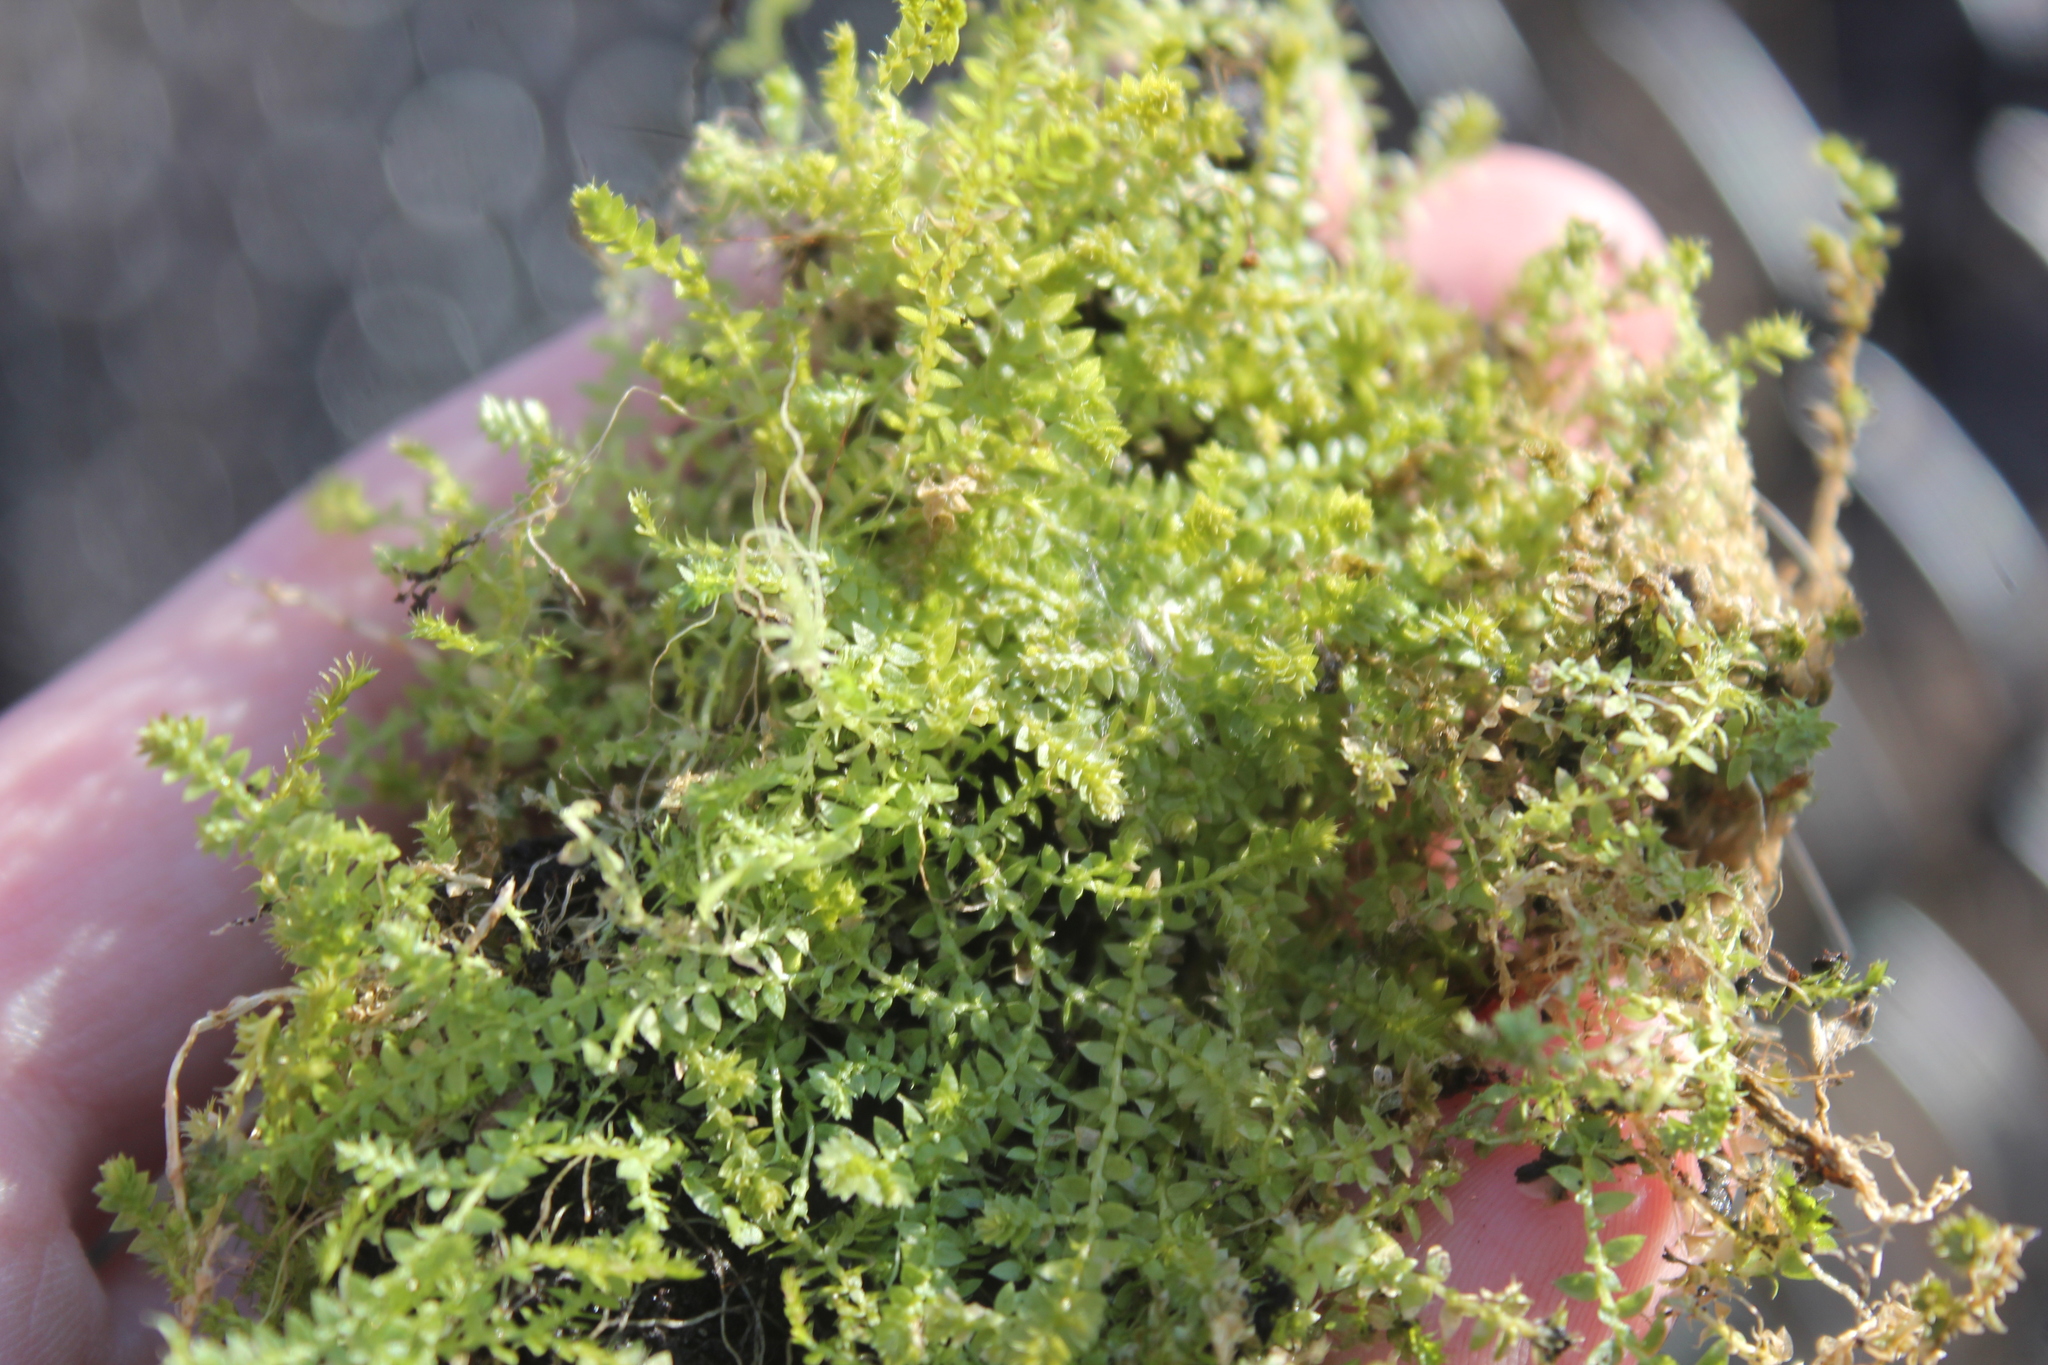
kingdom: Plantae
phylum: Tracheophyta
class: Lycopodiopsida
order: Selaginellales
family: Selaginellaceae
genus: Selaginella
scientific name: Selaginella eclipes
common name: Buck's meadow spikemoss
